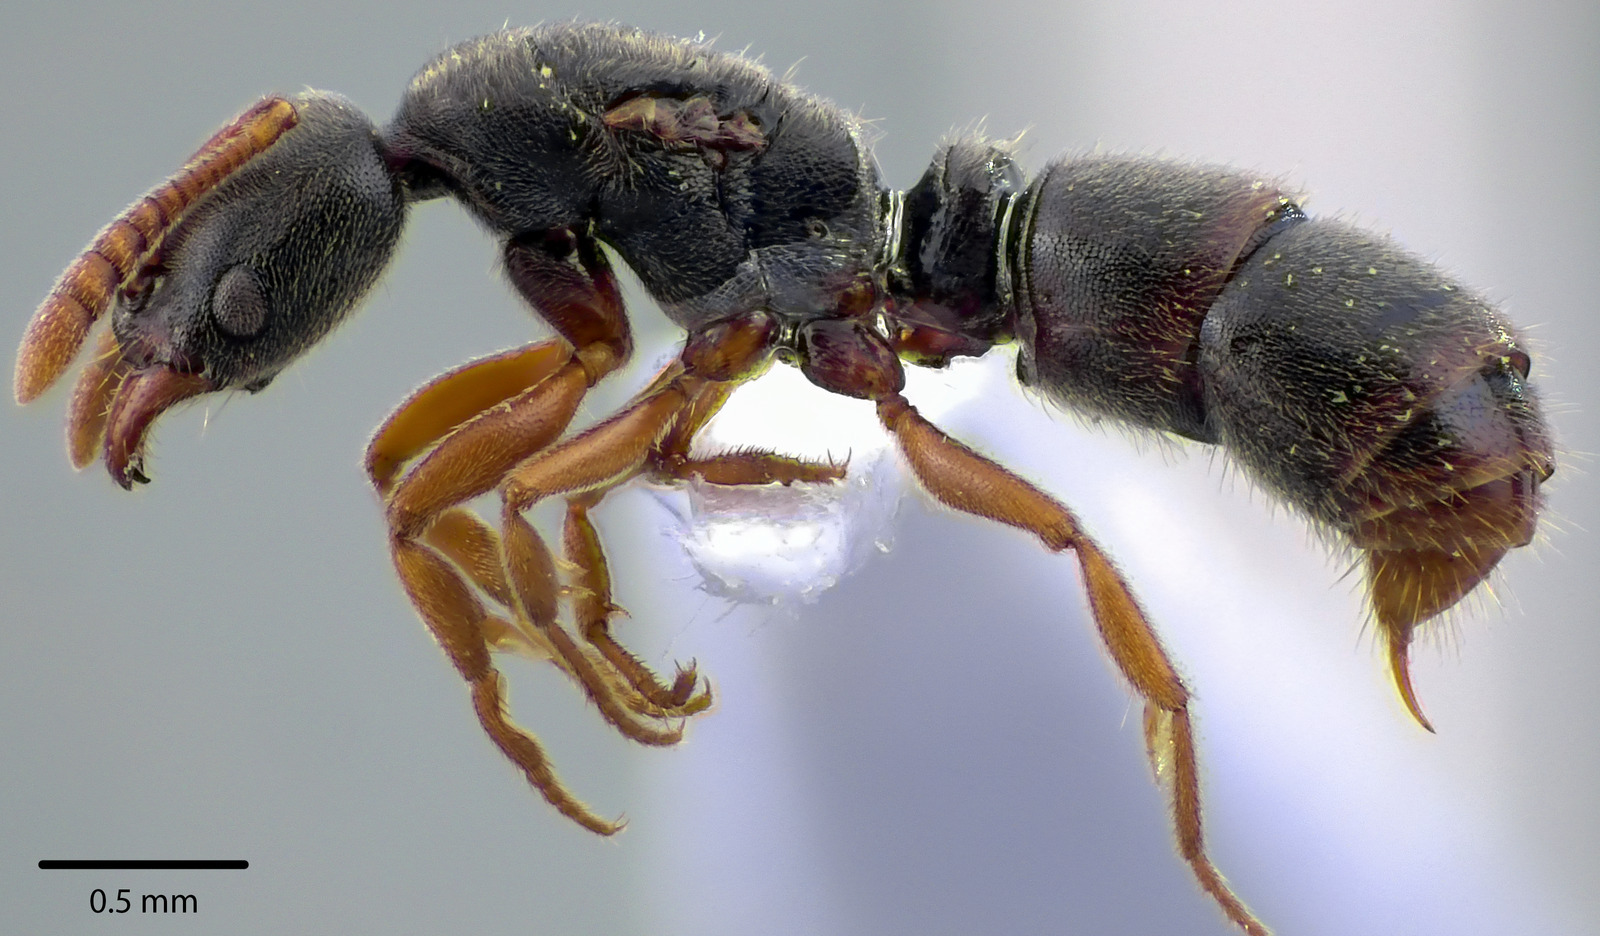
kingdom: Animalia
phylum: Arthropoda
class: Insecta
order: Hymenoptera
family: Formicidae
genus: Ponera
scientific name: Ponera pennsylvanica
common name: Pennsylvania ponera
